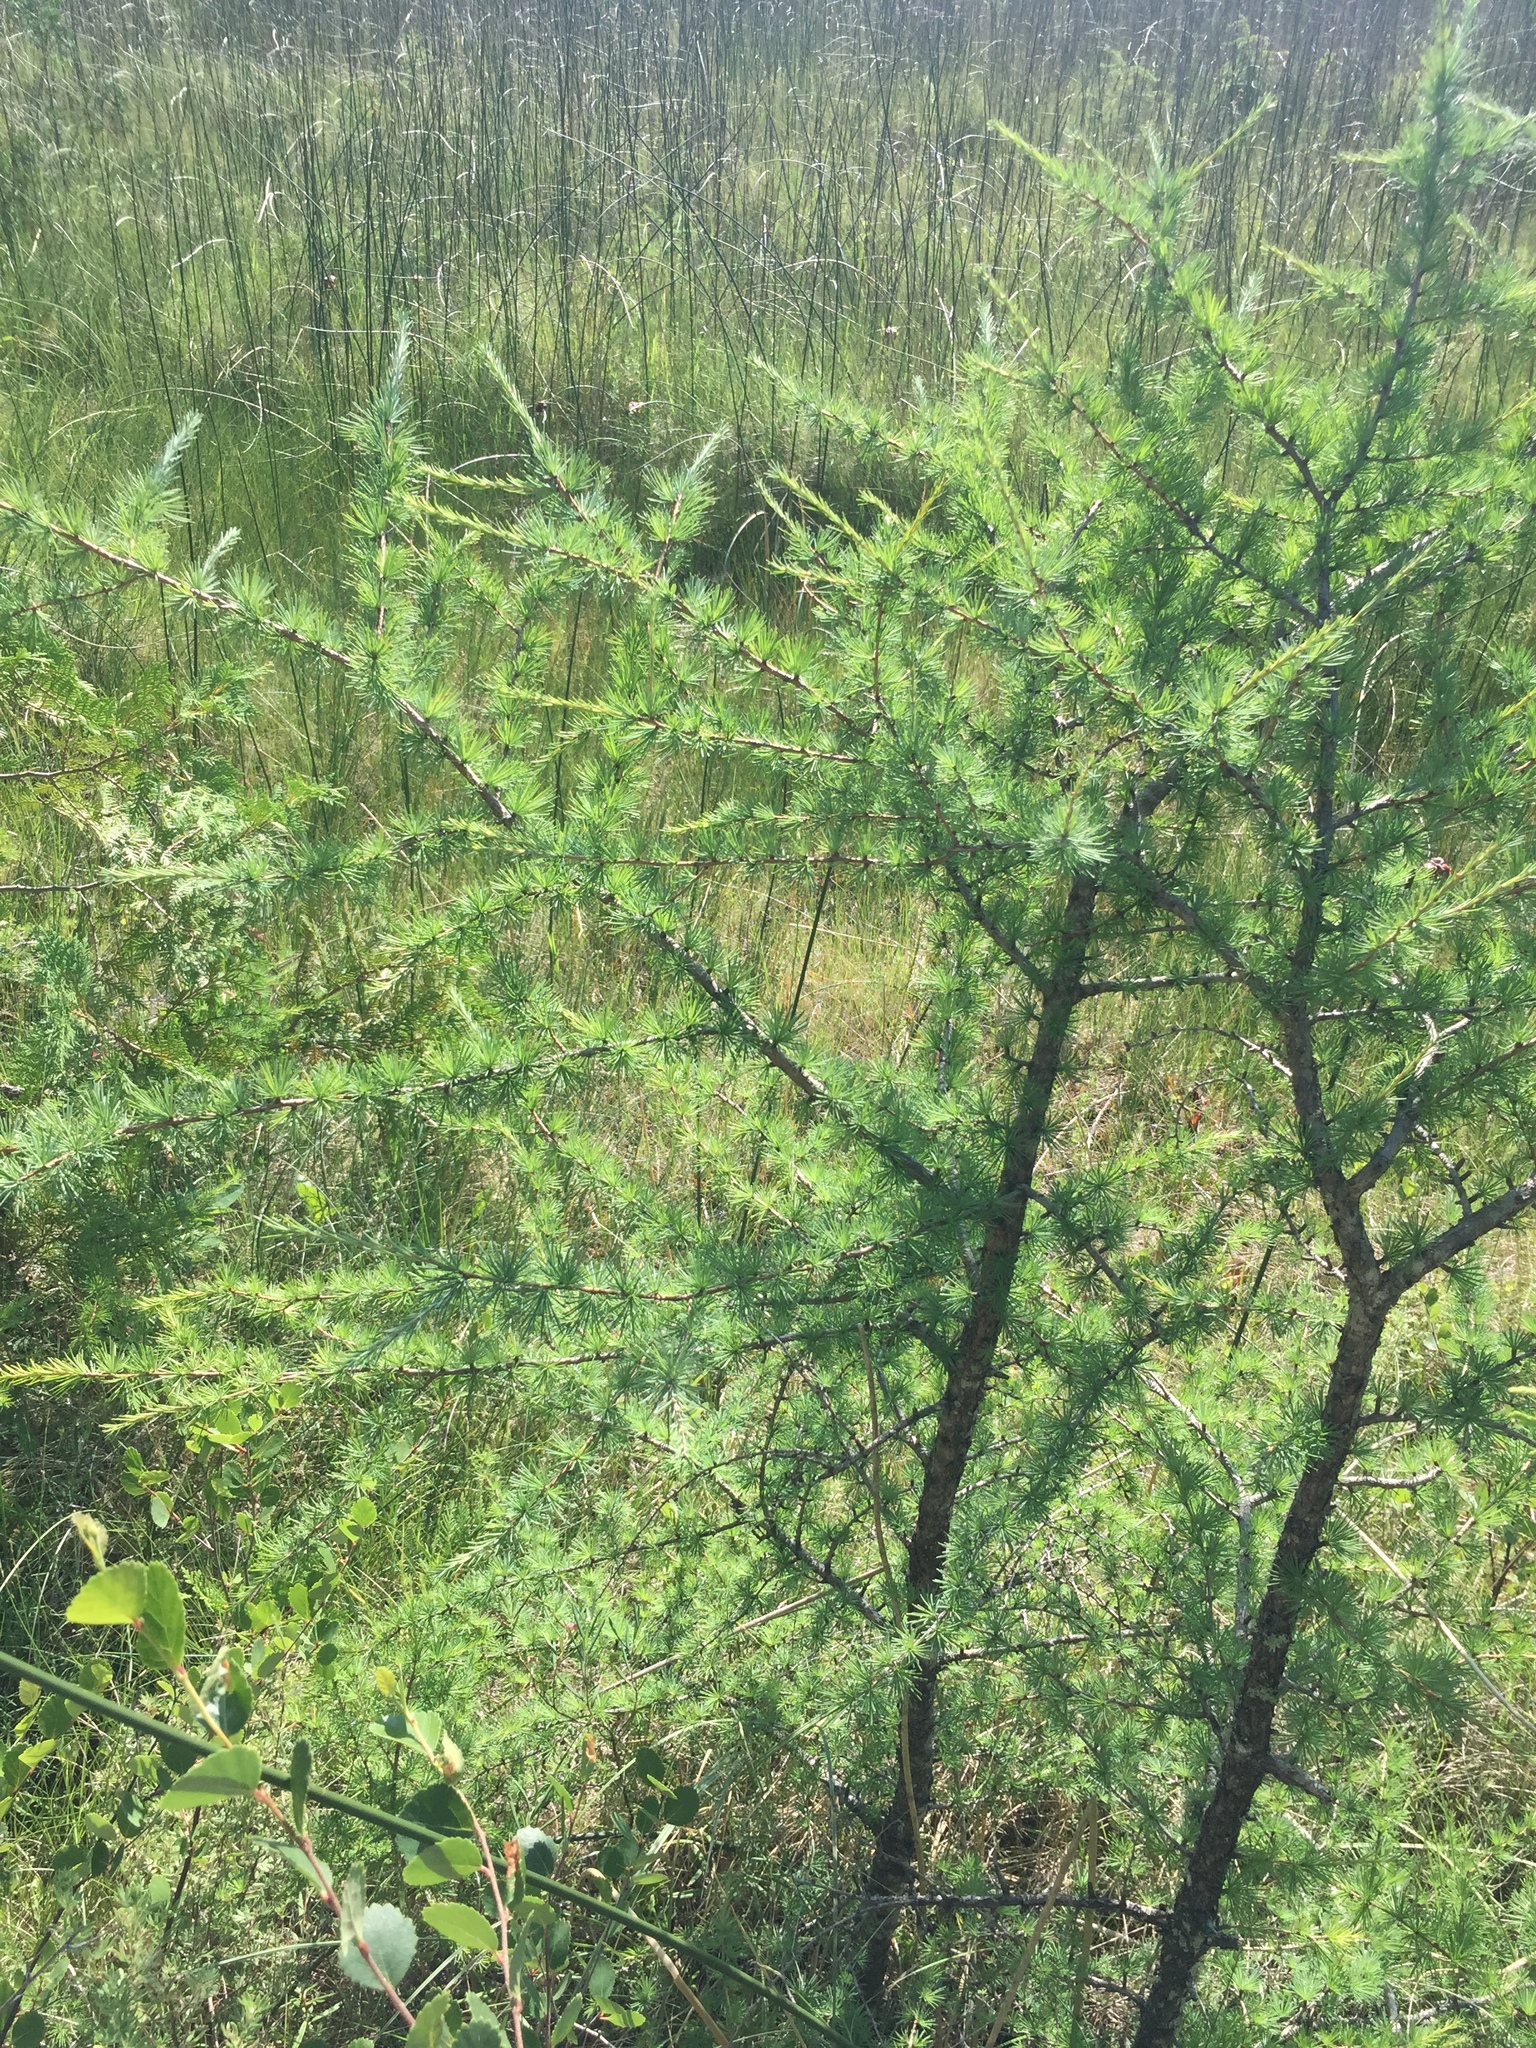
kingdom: Plantae
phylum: Tracheophyta
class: Pinopsida
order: Pinales
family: Pinaceae
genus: Larix
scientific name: Larix laricina
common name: American larch
